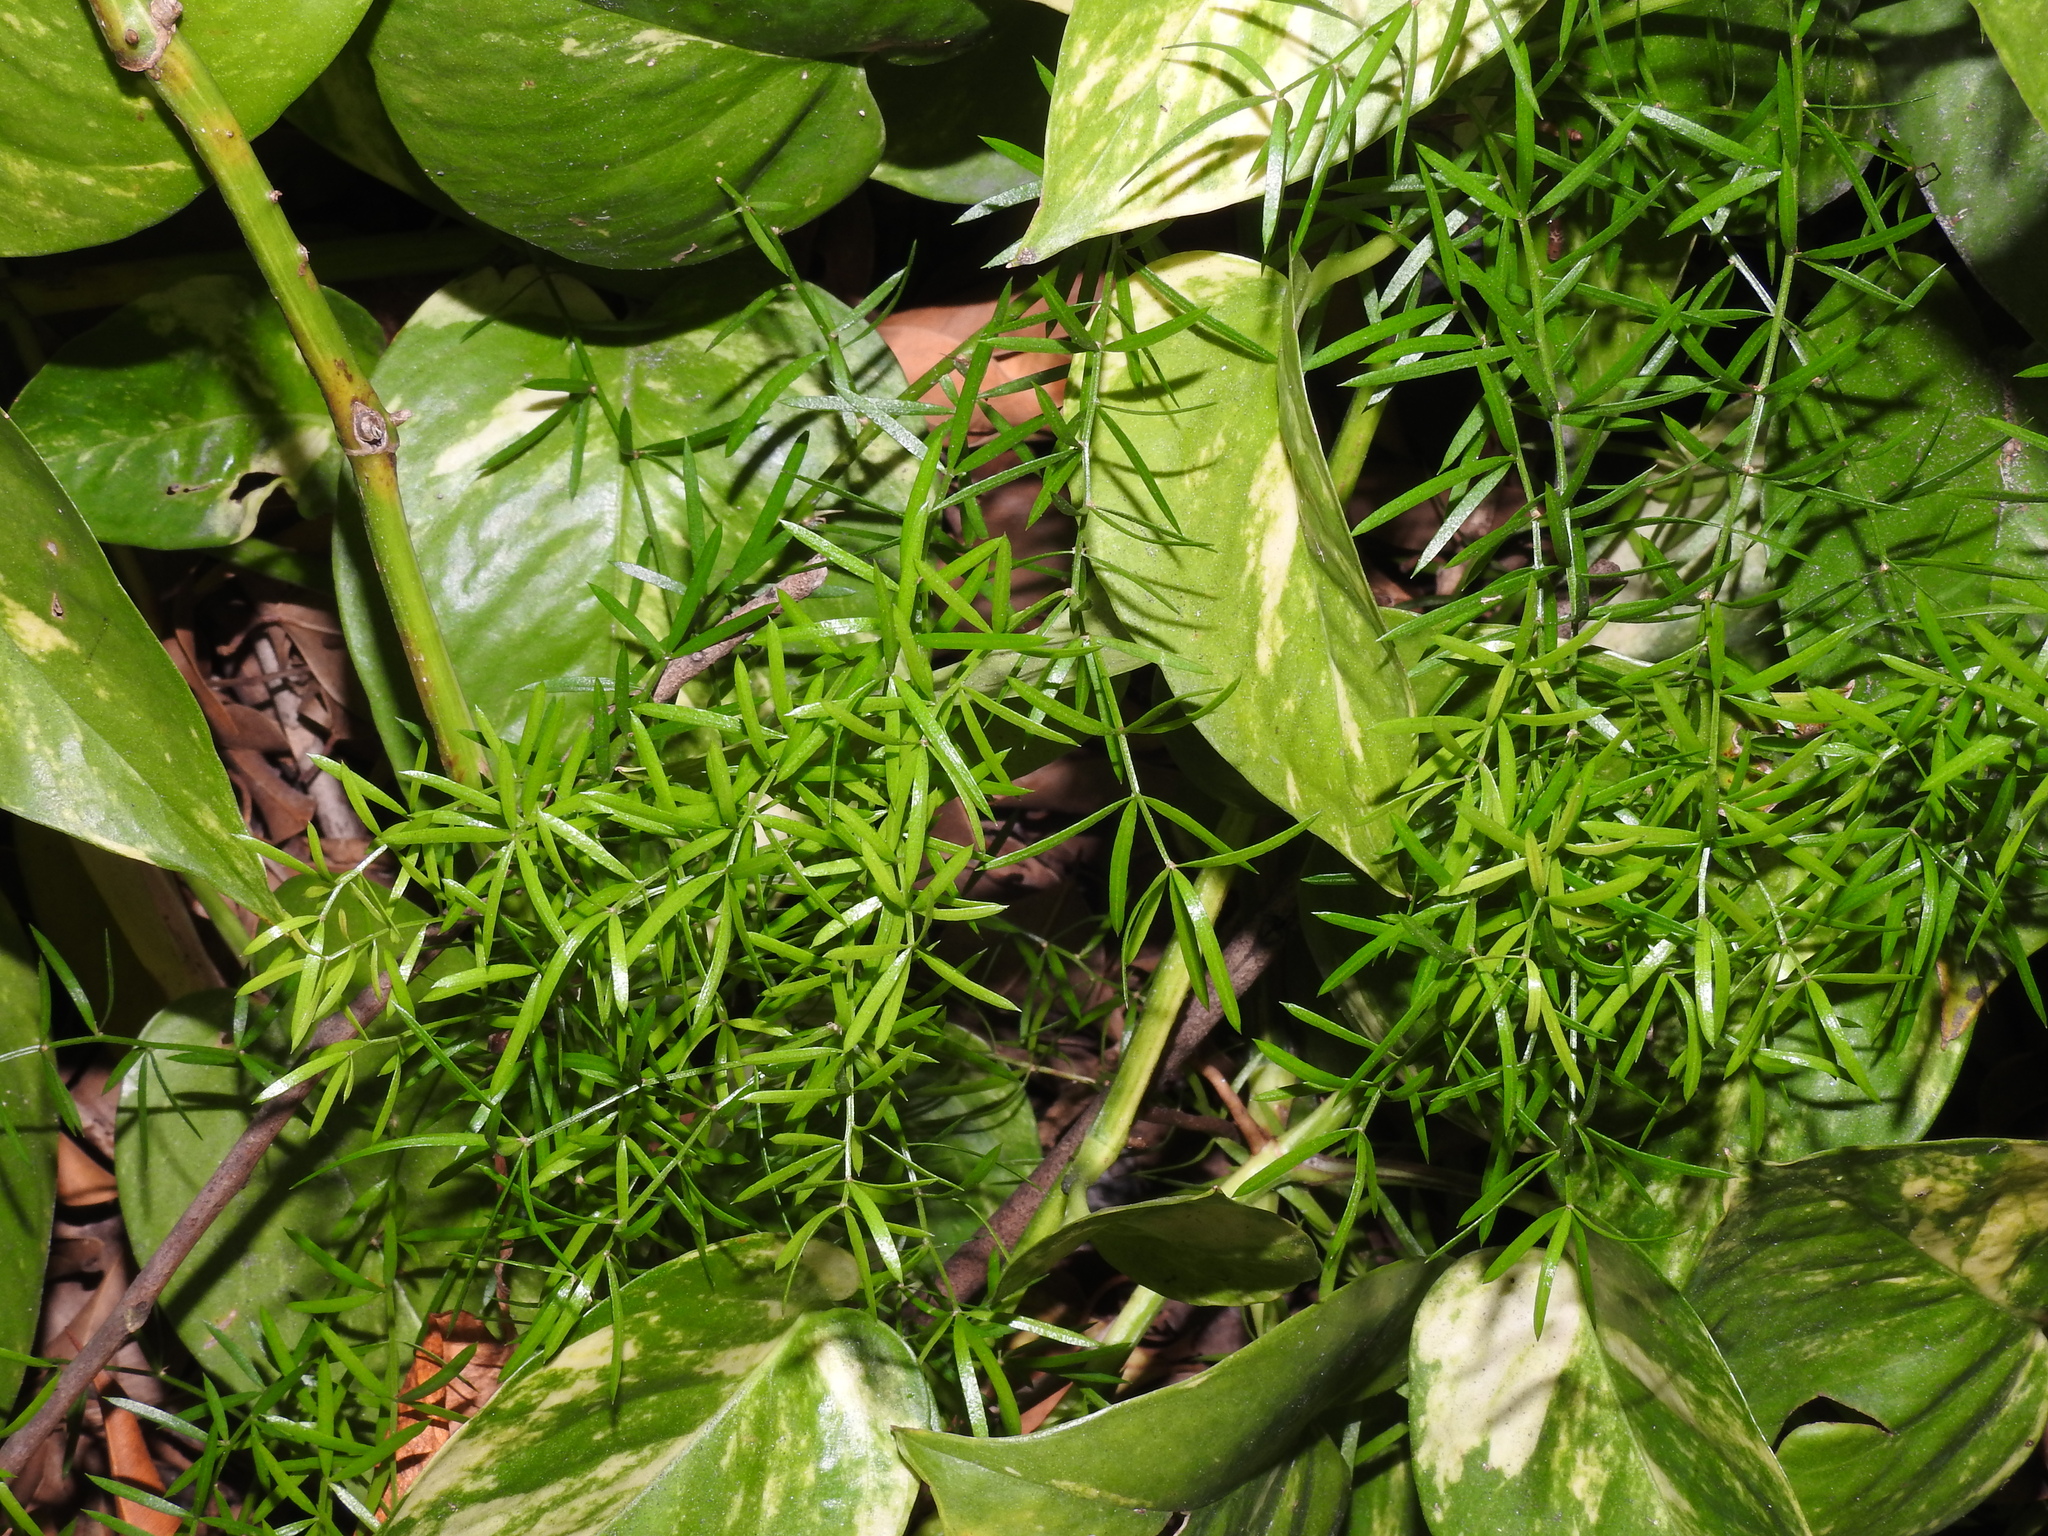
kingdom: Plantae
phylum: Tracheophyta
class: Liliopsida
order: Asparagales
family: Asparagaceae
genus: Asparagus
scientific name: Asparagus aethiopicus
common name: Sprenger's asparagus fern
